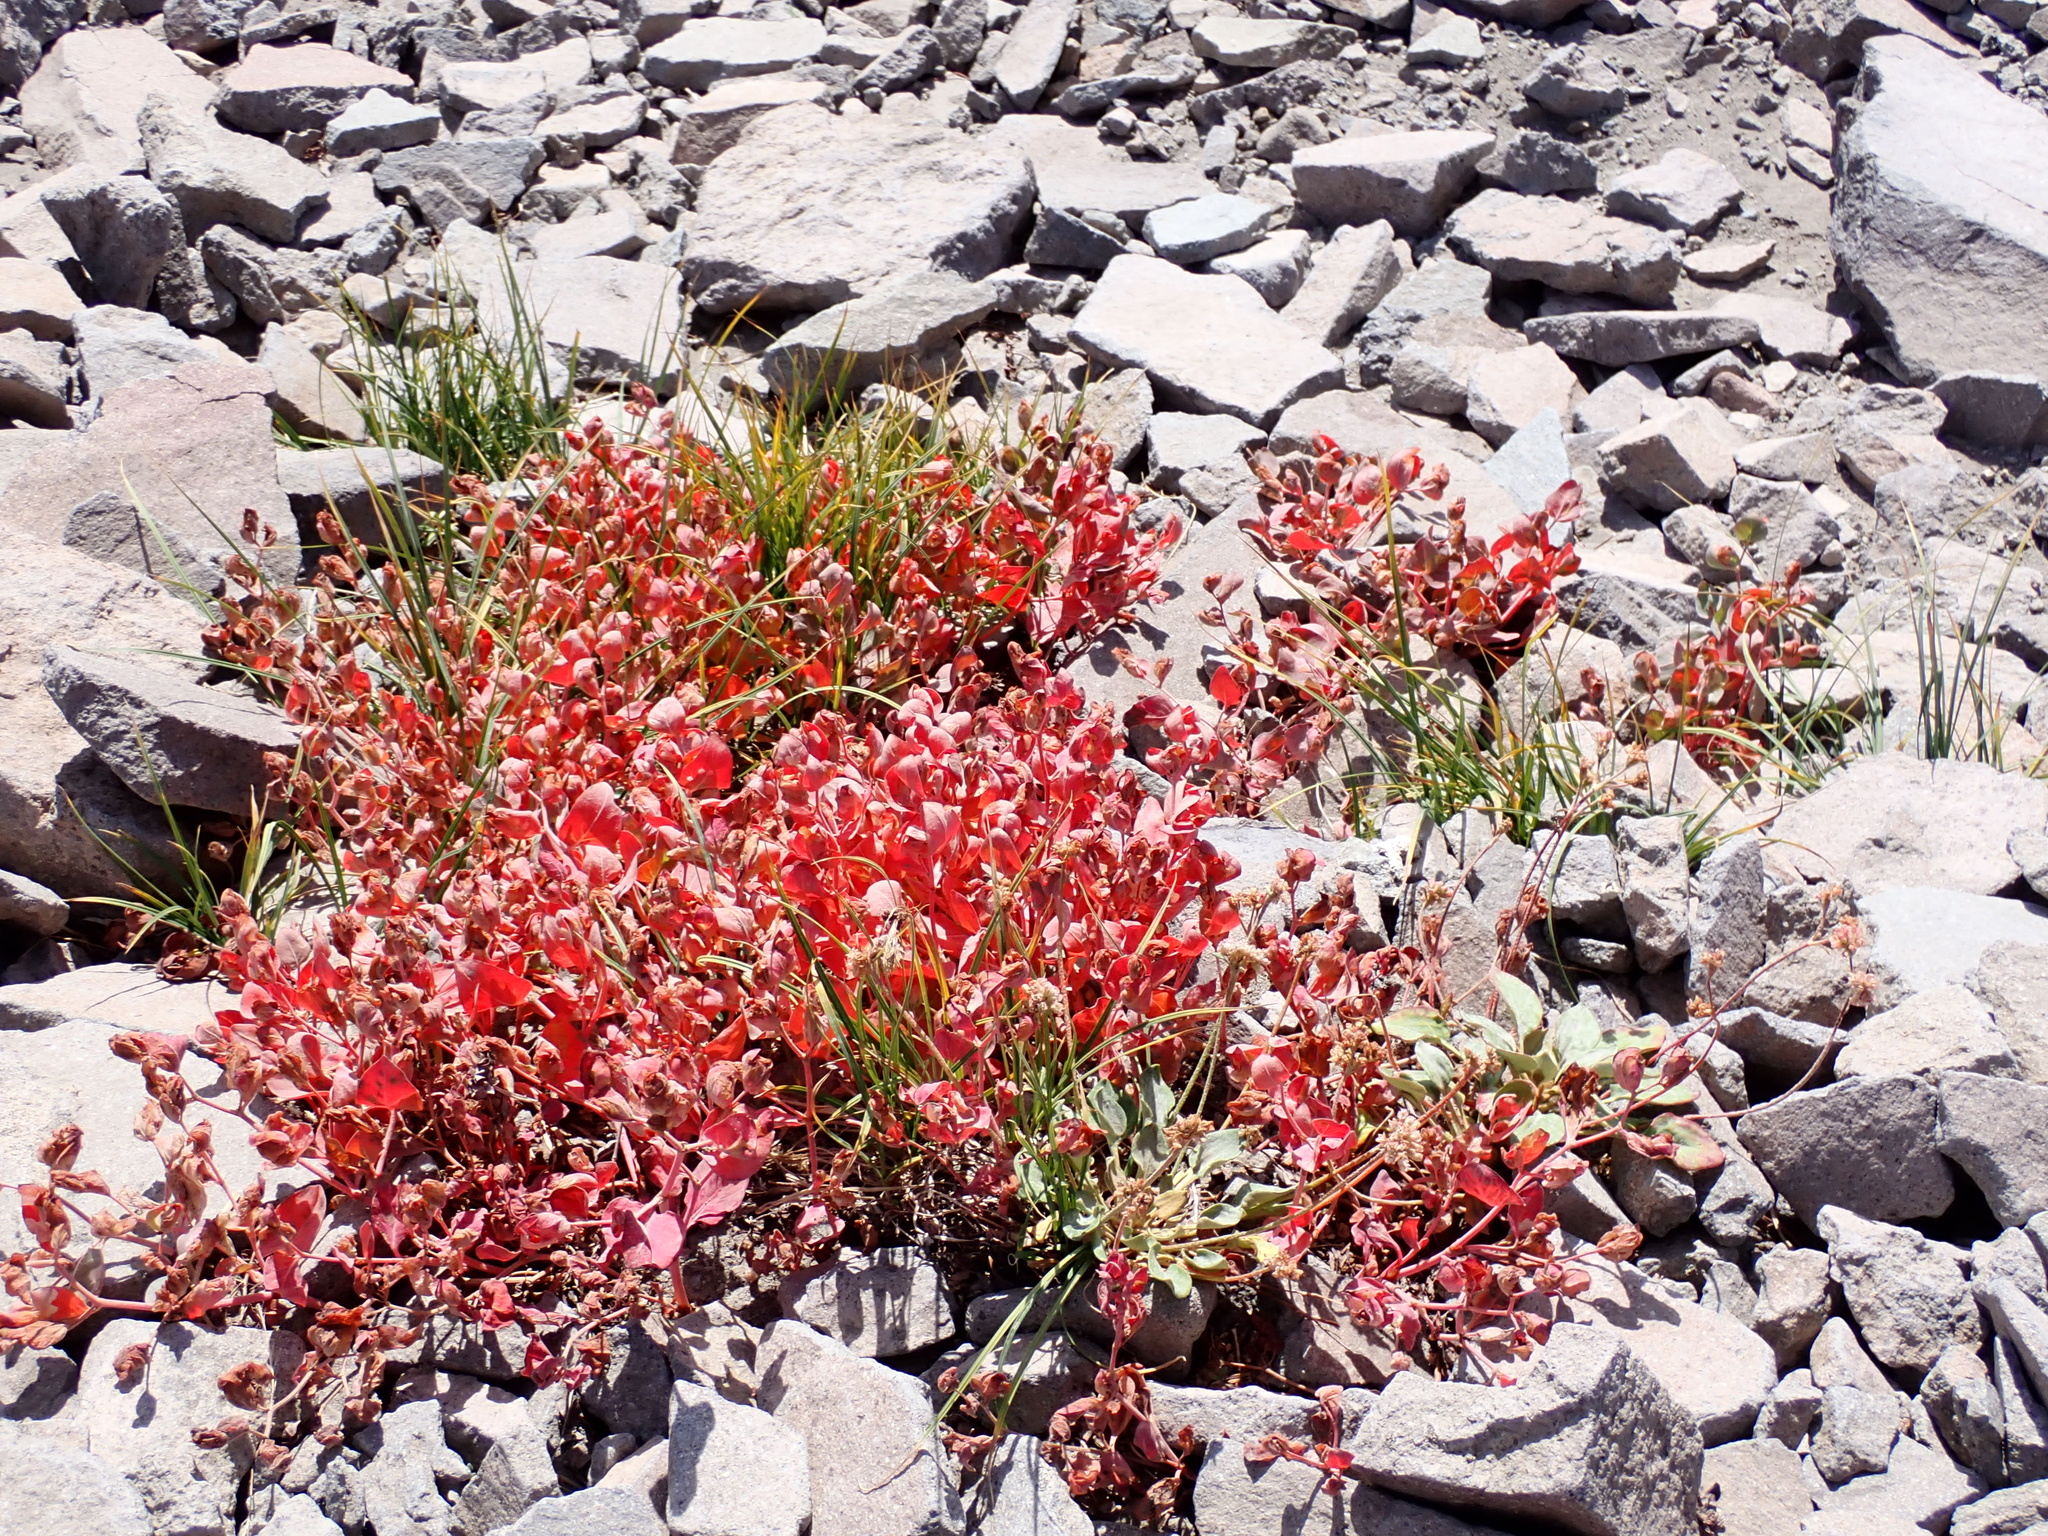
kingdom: Plantae
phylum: Tracheophyta
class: Magnoliopsida
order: Caryophyllales
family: Polygonaceae
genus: Koenigia
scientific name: Koenigia davisiae
